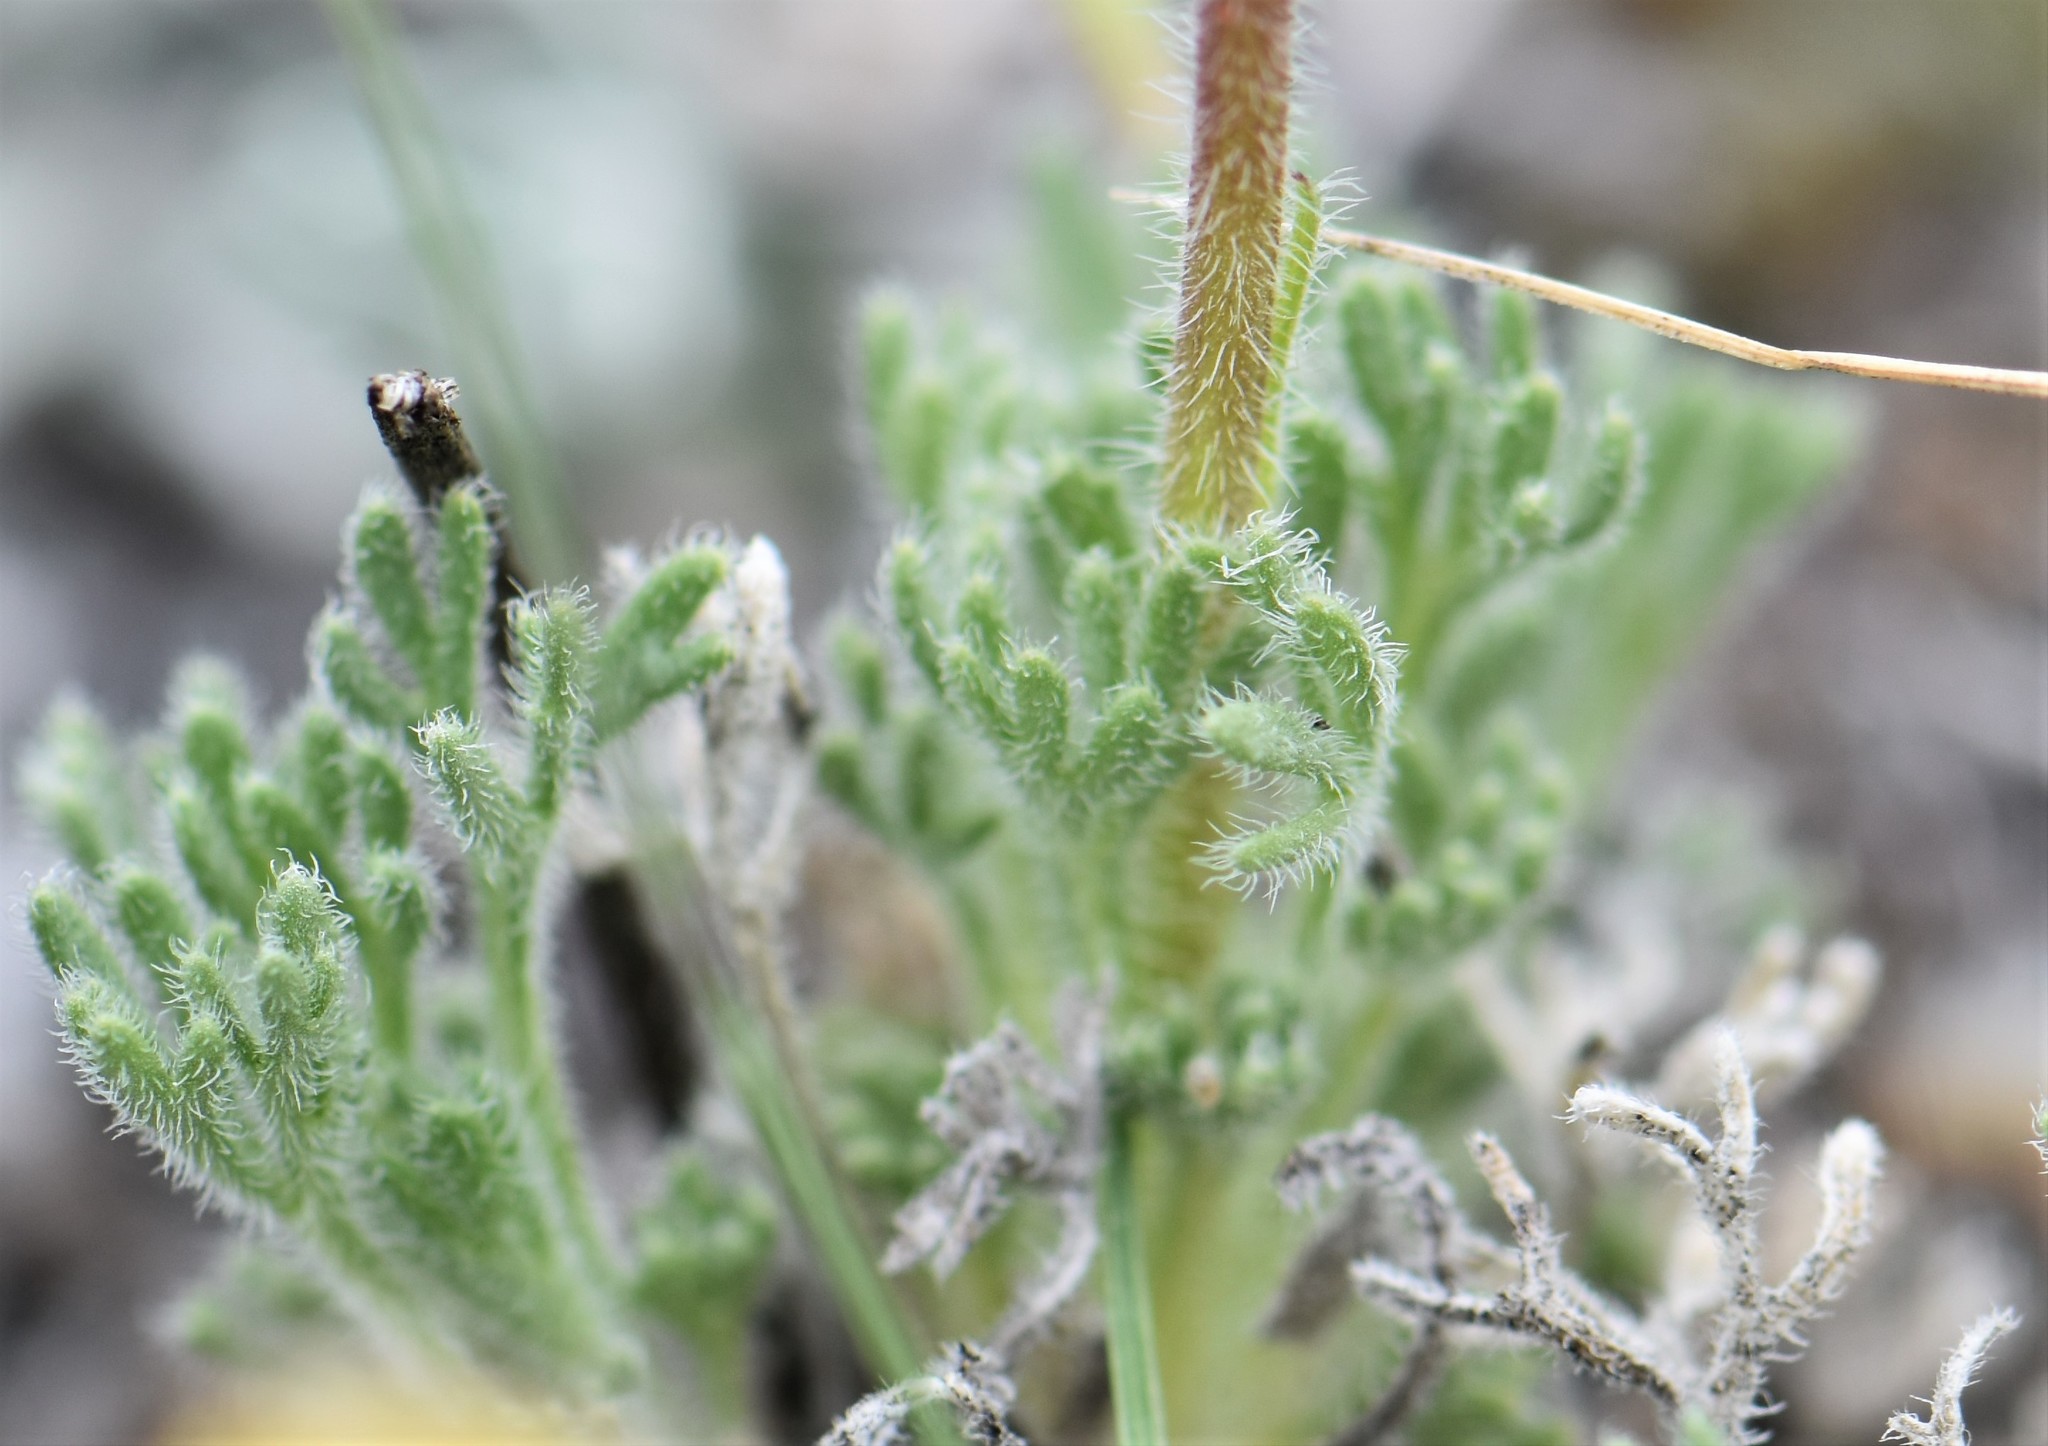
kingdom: Plantae
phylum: Tracheophyta
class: Magnoliopsida
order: Asterales
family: Asteraceae
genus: Erigeron
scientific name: Erigeron compositus
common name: Dwarf mountain fleabane
